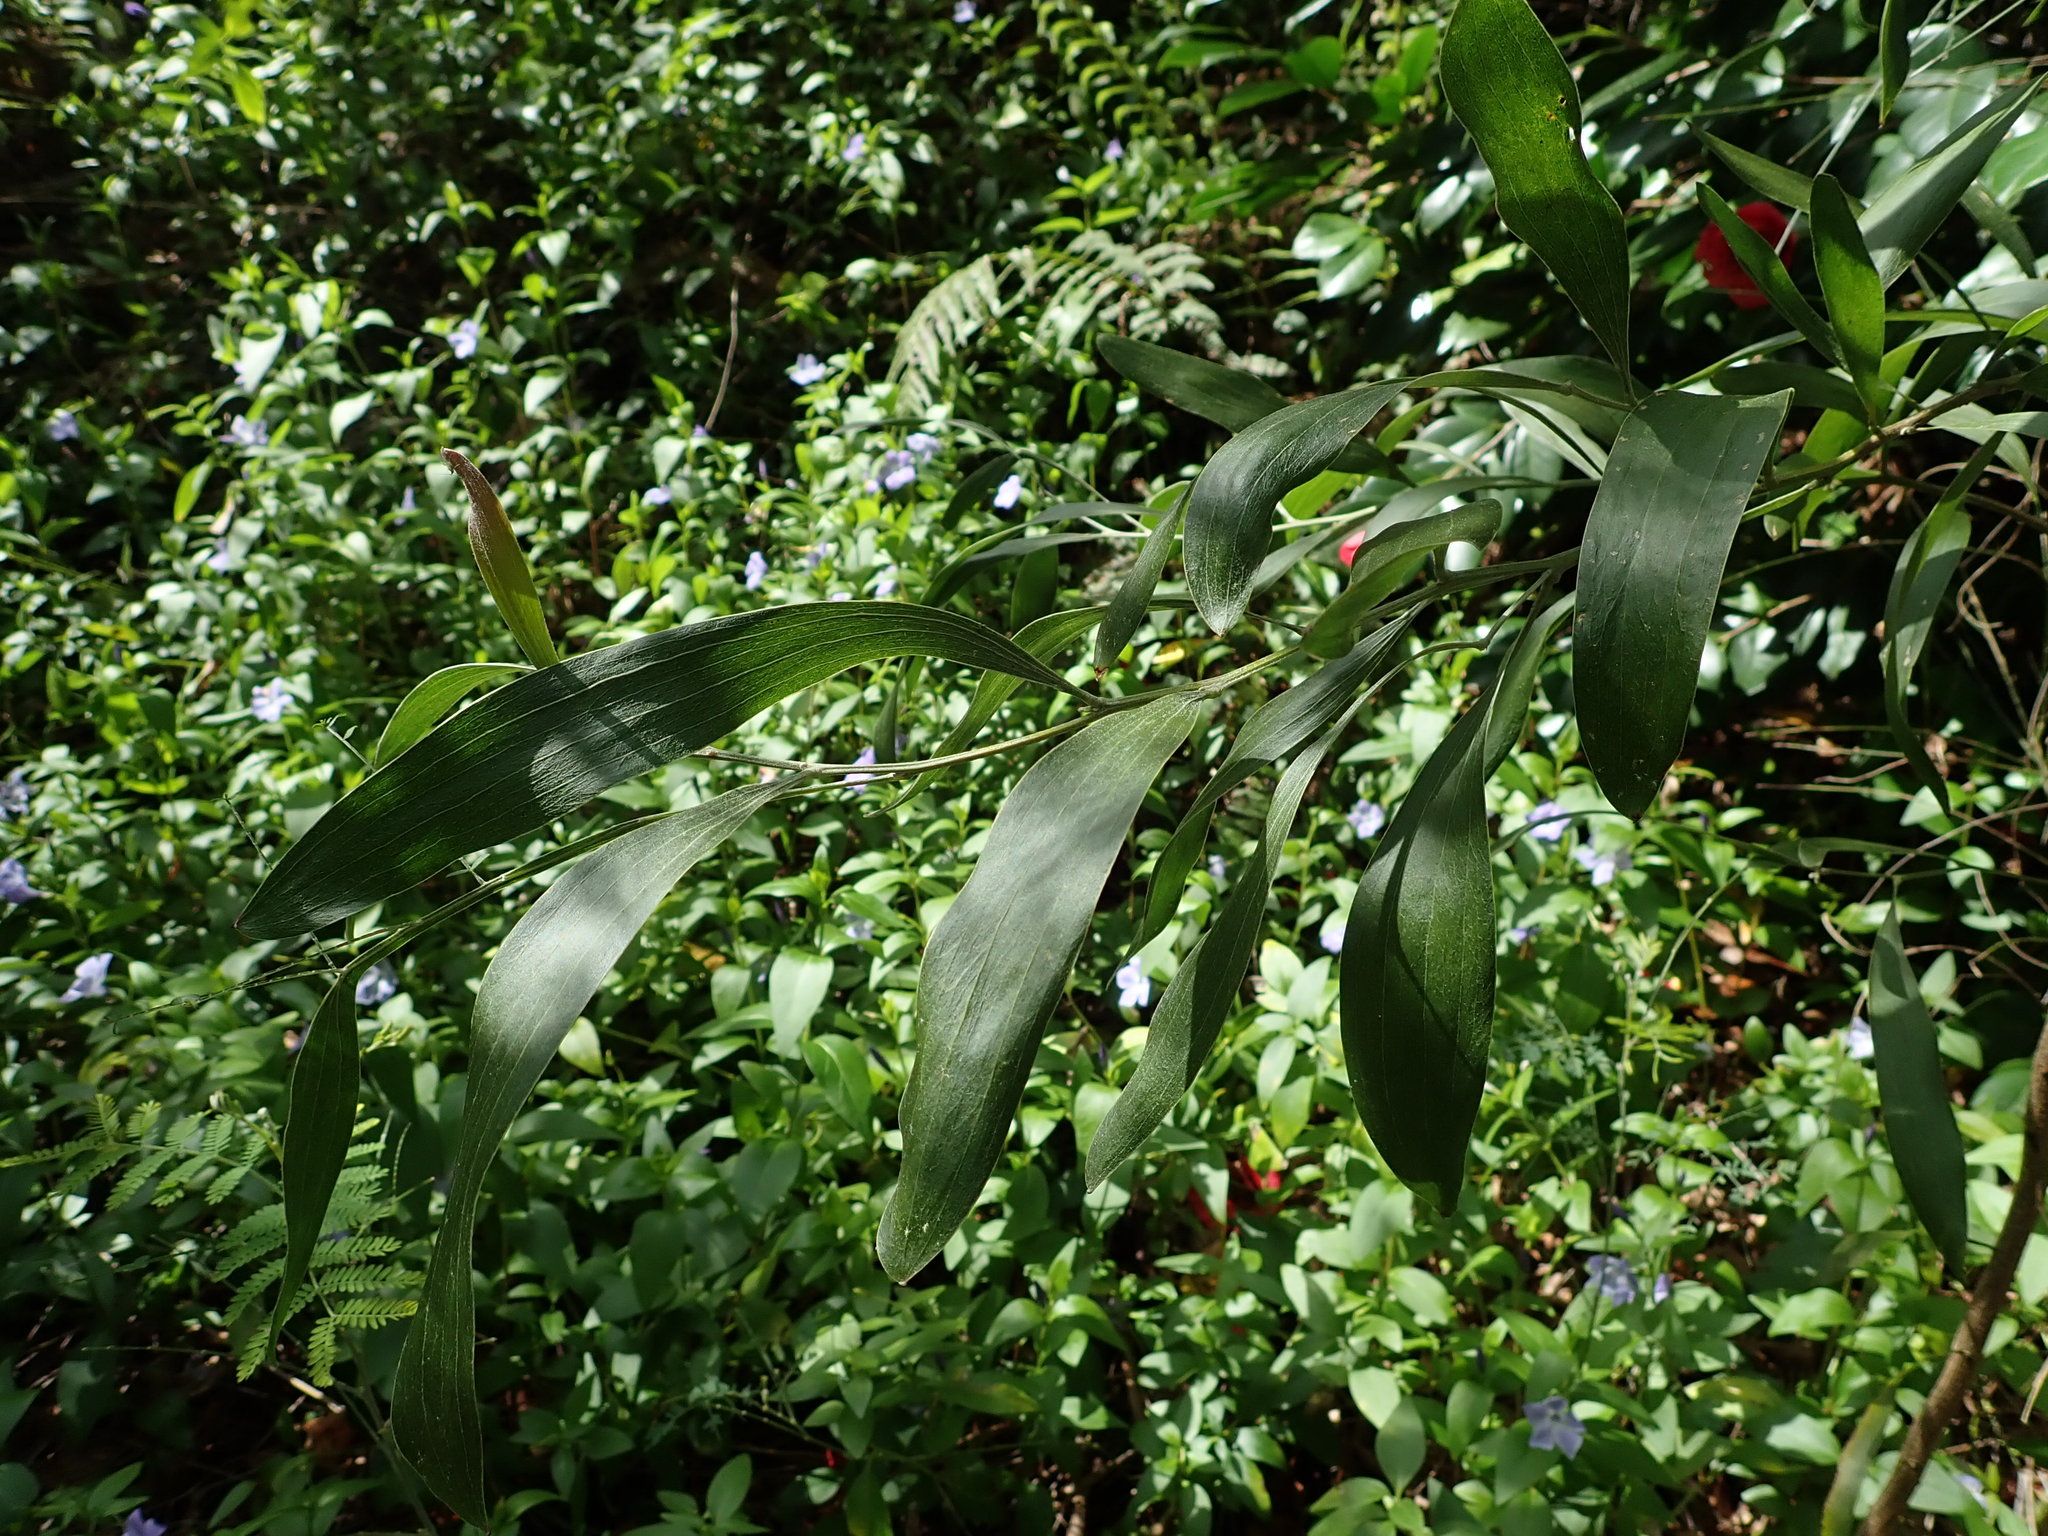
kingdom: Plantae
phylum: Tracheophyta
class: Magnoliopsida
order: Fabales
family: Fabaceae
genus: Acacia
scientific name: Acacia melanoxylon
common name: Blackwood
